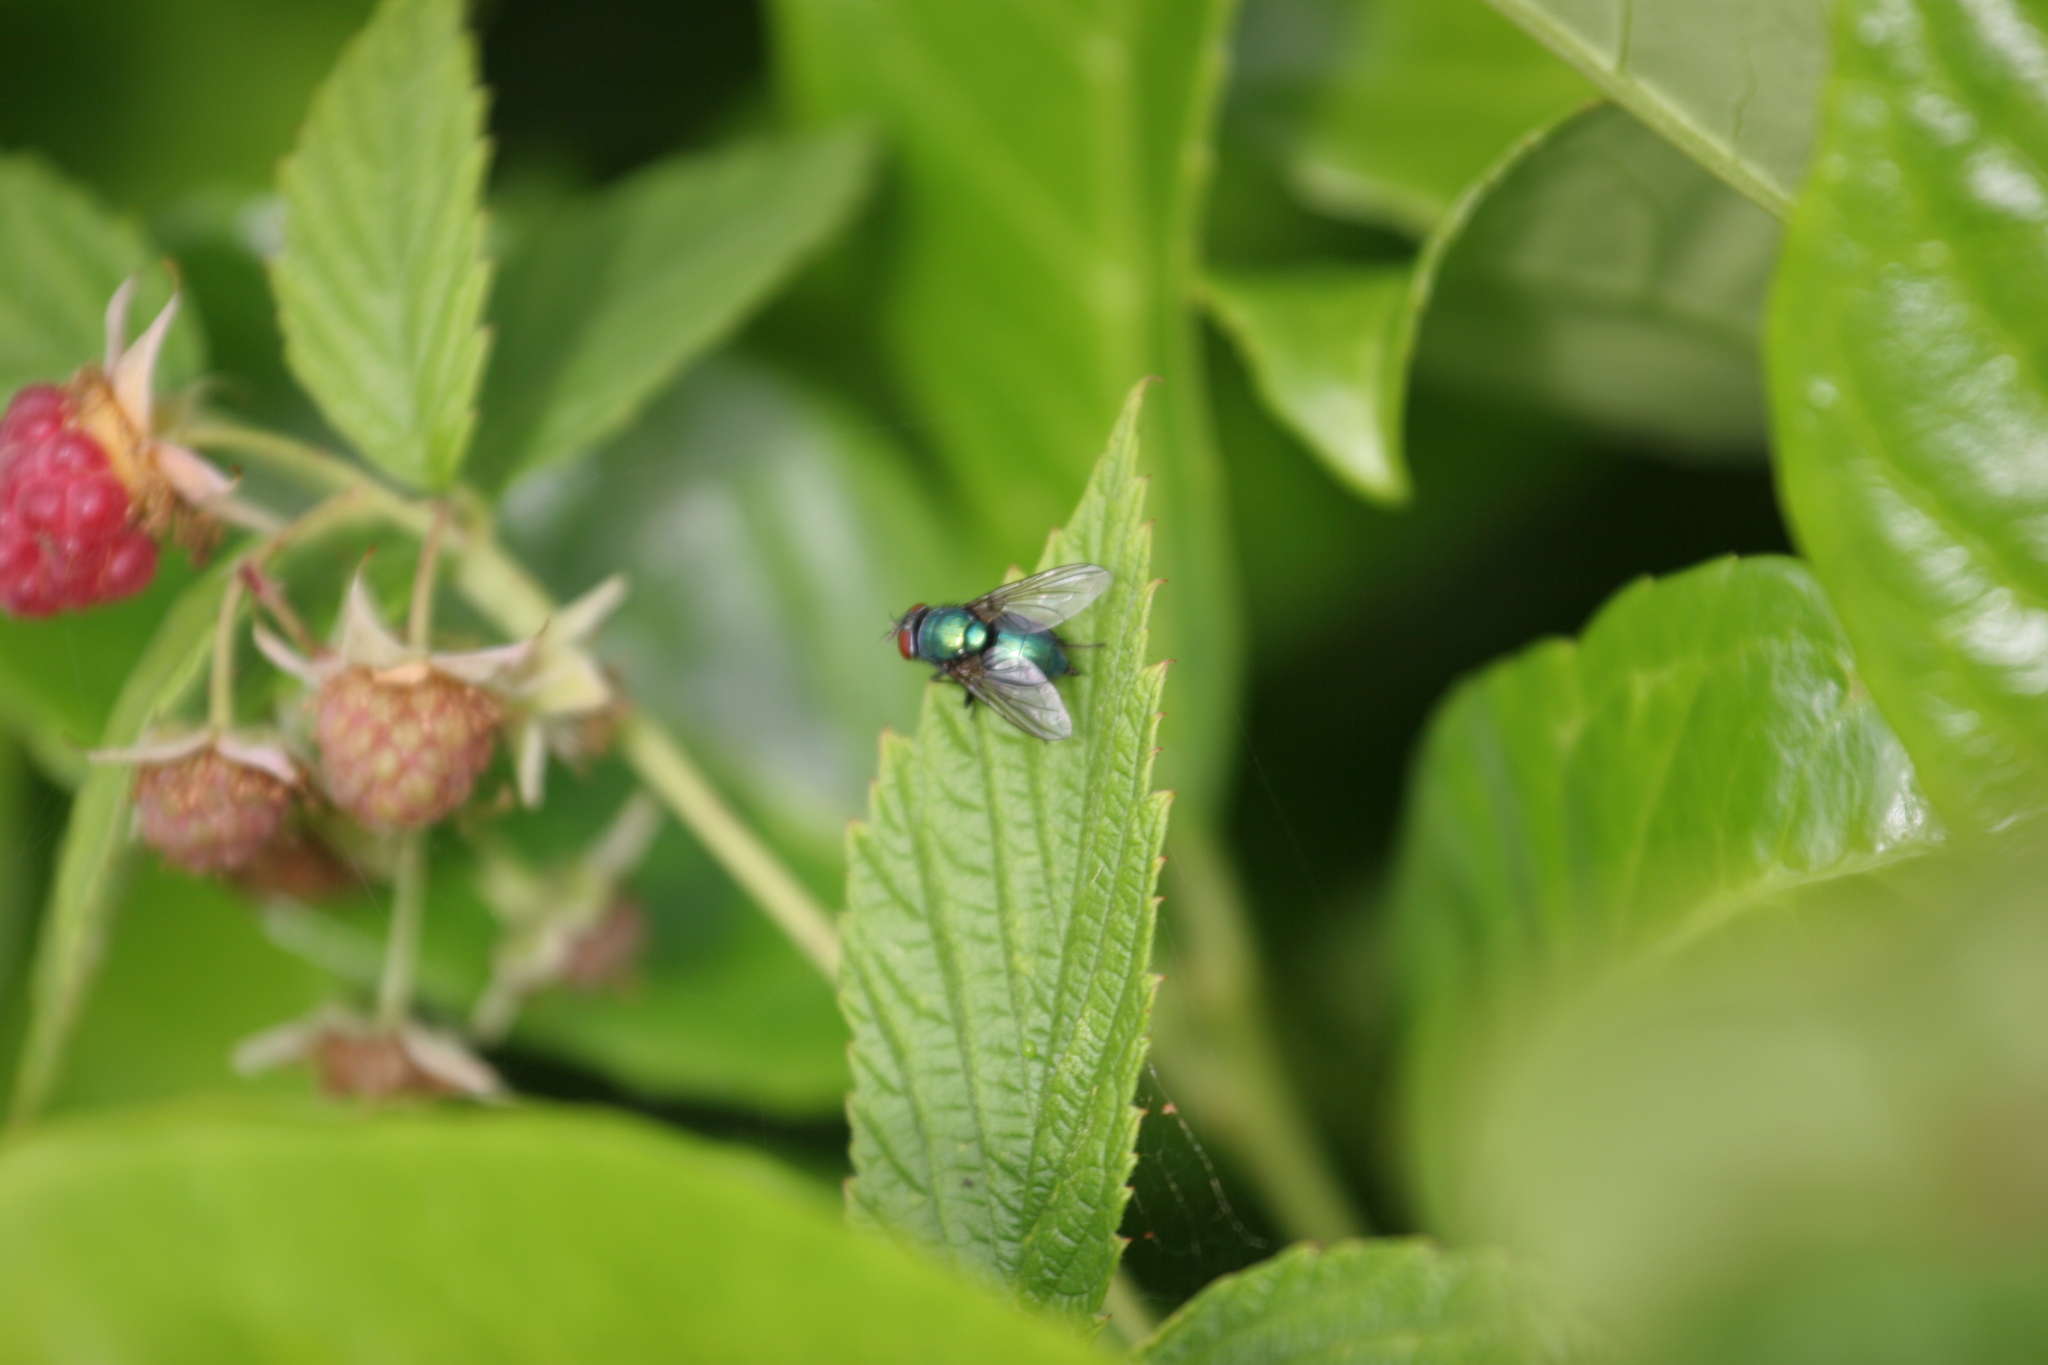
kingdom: Animalia
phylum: Arthropoda
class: Insecta
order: Diptera
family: Calliphoridae
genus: Lucilia
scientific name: Lucilia
